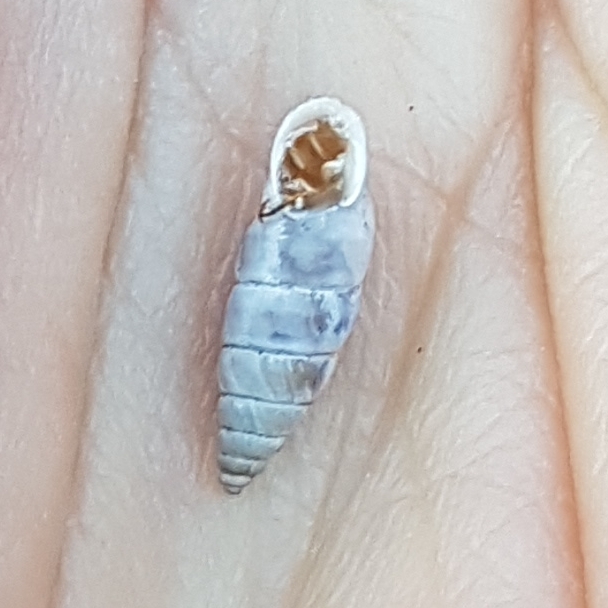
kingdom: Animalia
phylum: Mollusca
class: Gastropoda
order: Stylommatophora
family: Chondrinidae
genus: Solatopupa
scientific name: Solatopupa similis
